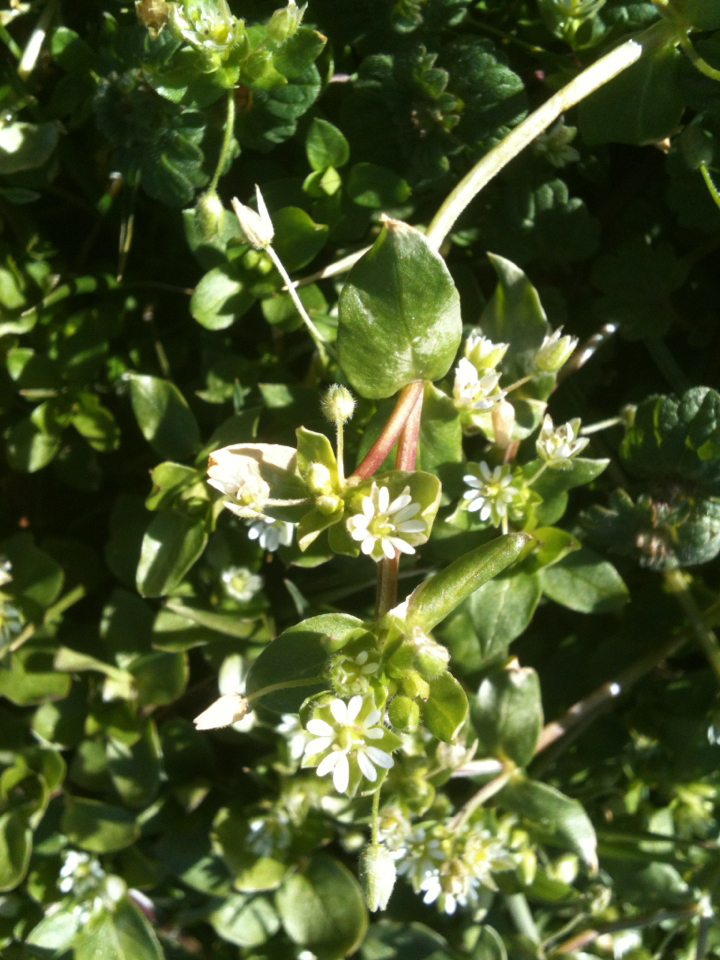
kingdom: Plantae
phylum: Tracheophyta
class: Magnoliopsida
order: Caryophyllales
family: Caryophyllaceae
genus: Stellaria
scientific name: Stellaria media
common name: Common chickweed
